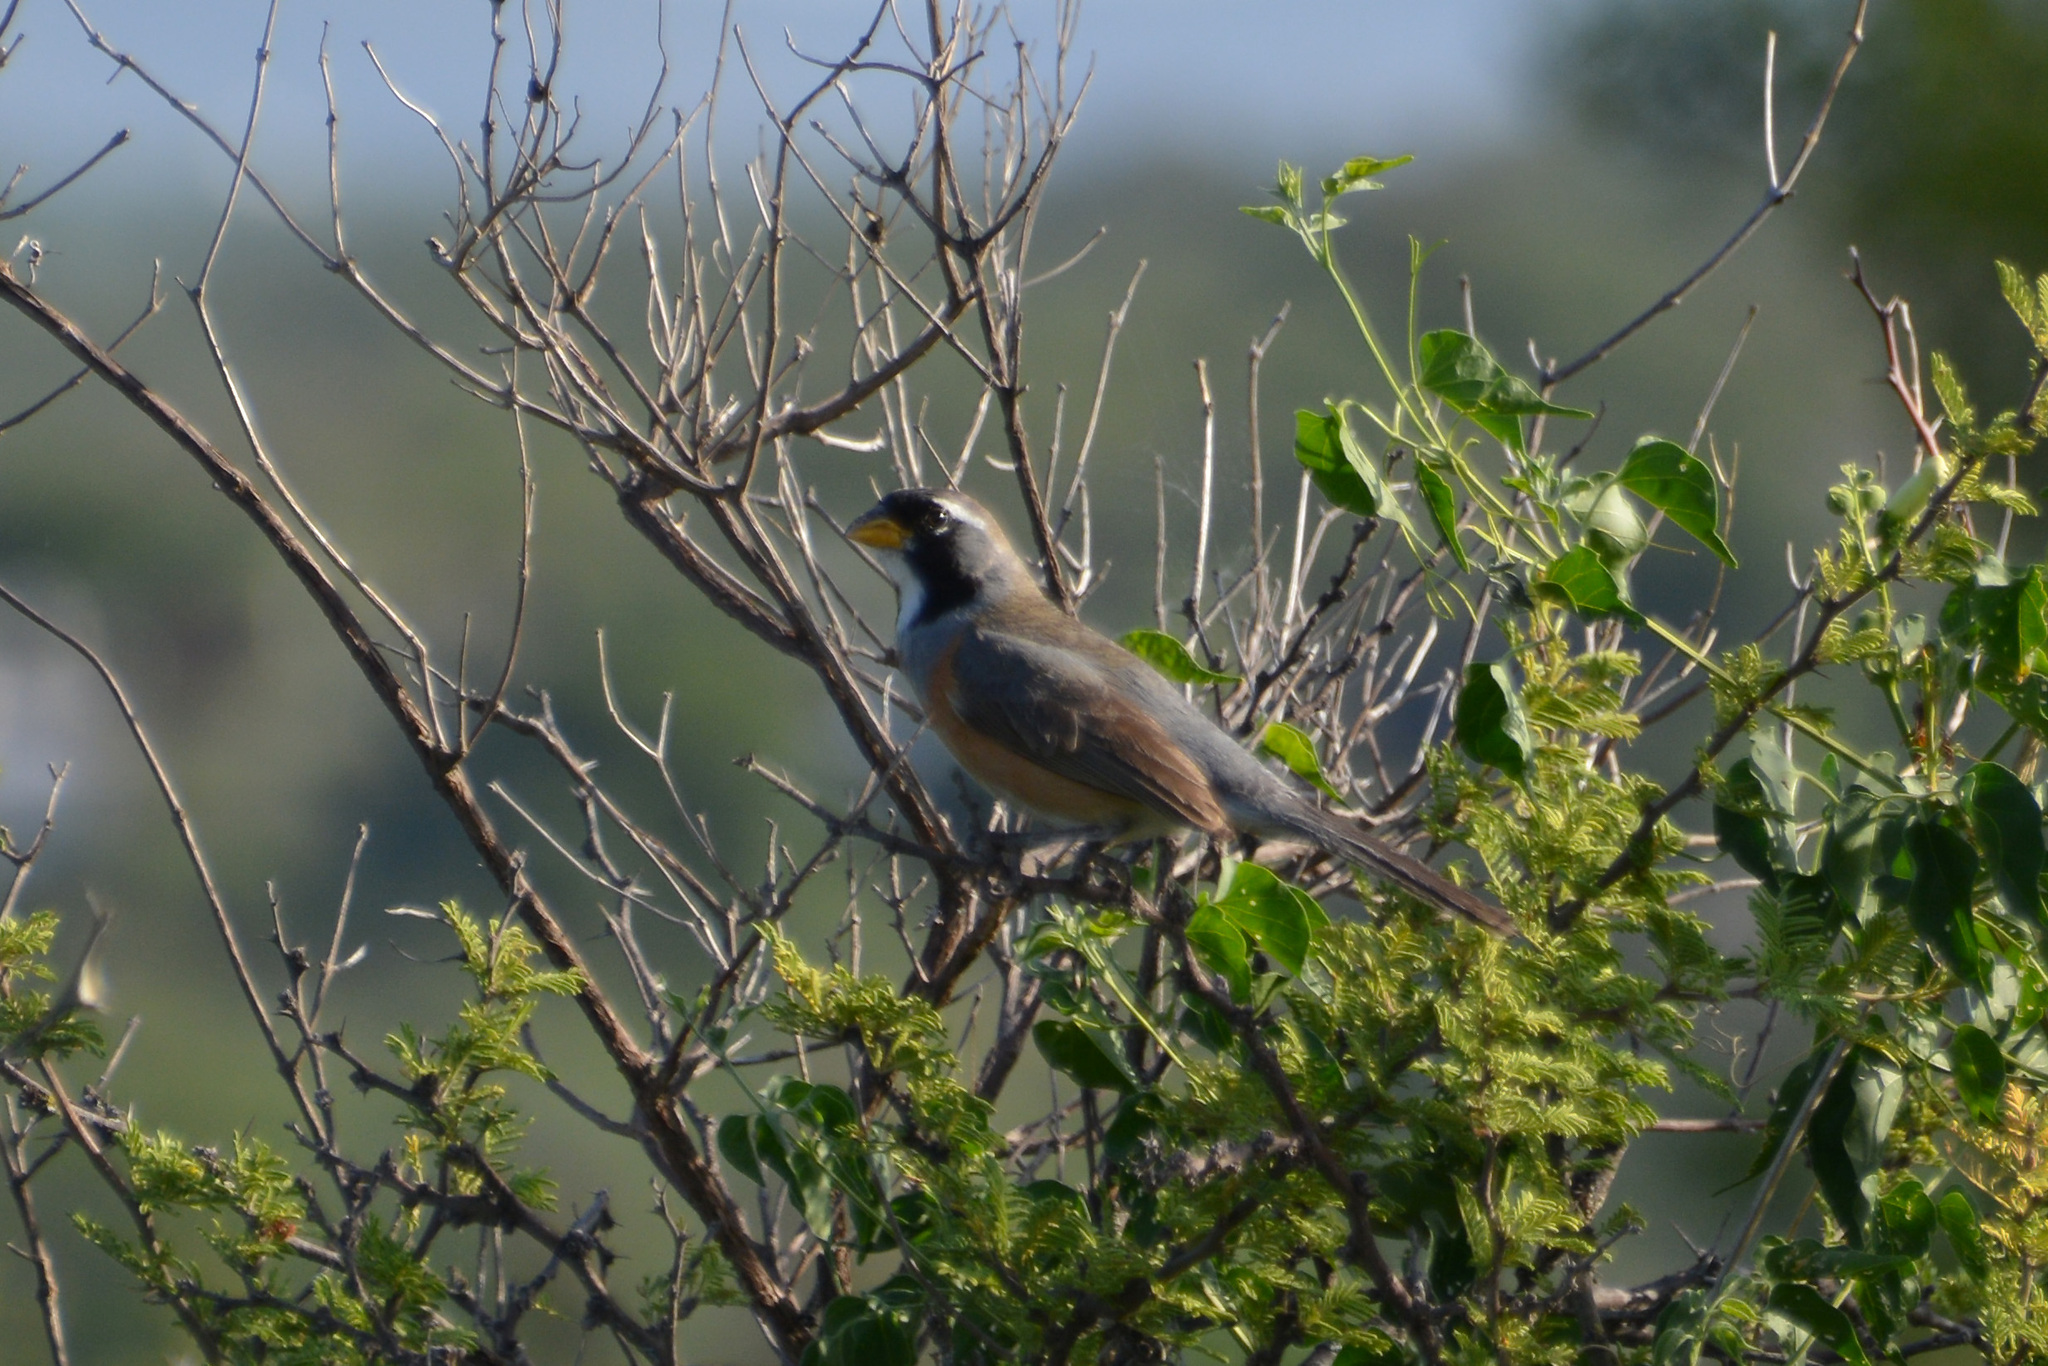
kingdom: Animalia
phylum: Chordata
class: Aves
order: Passeriformes
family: Thraupidae
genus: Saltatricula
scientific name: Saltatricula multicolor
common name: Many-colored chaco finch
